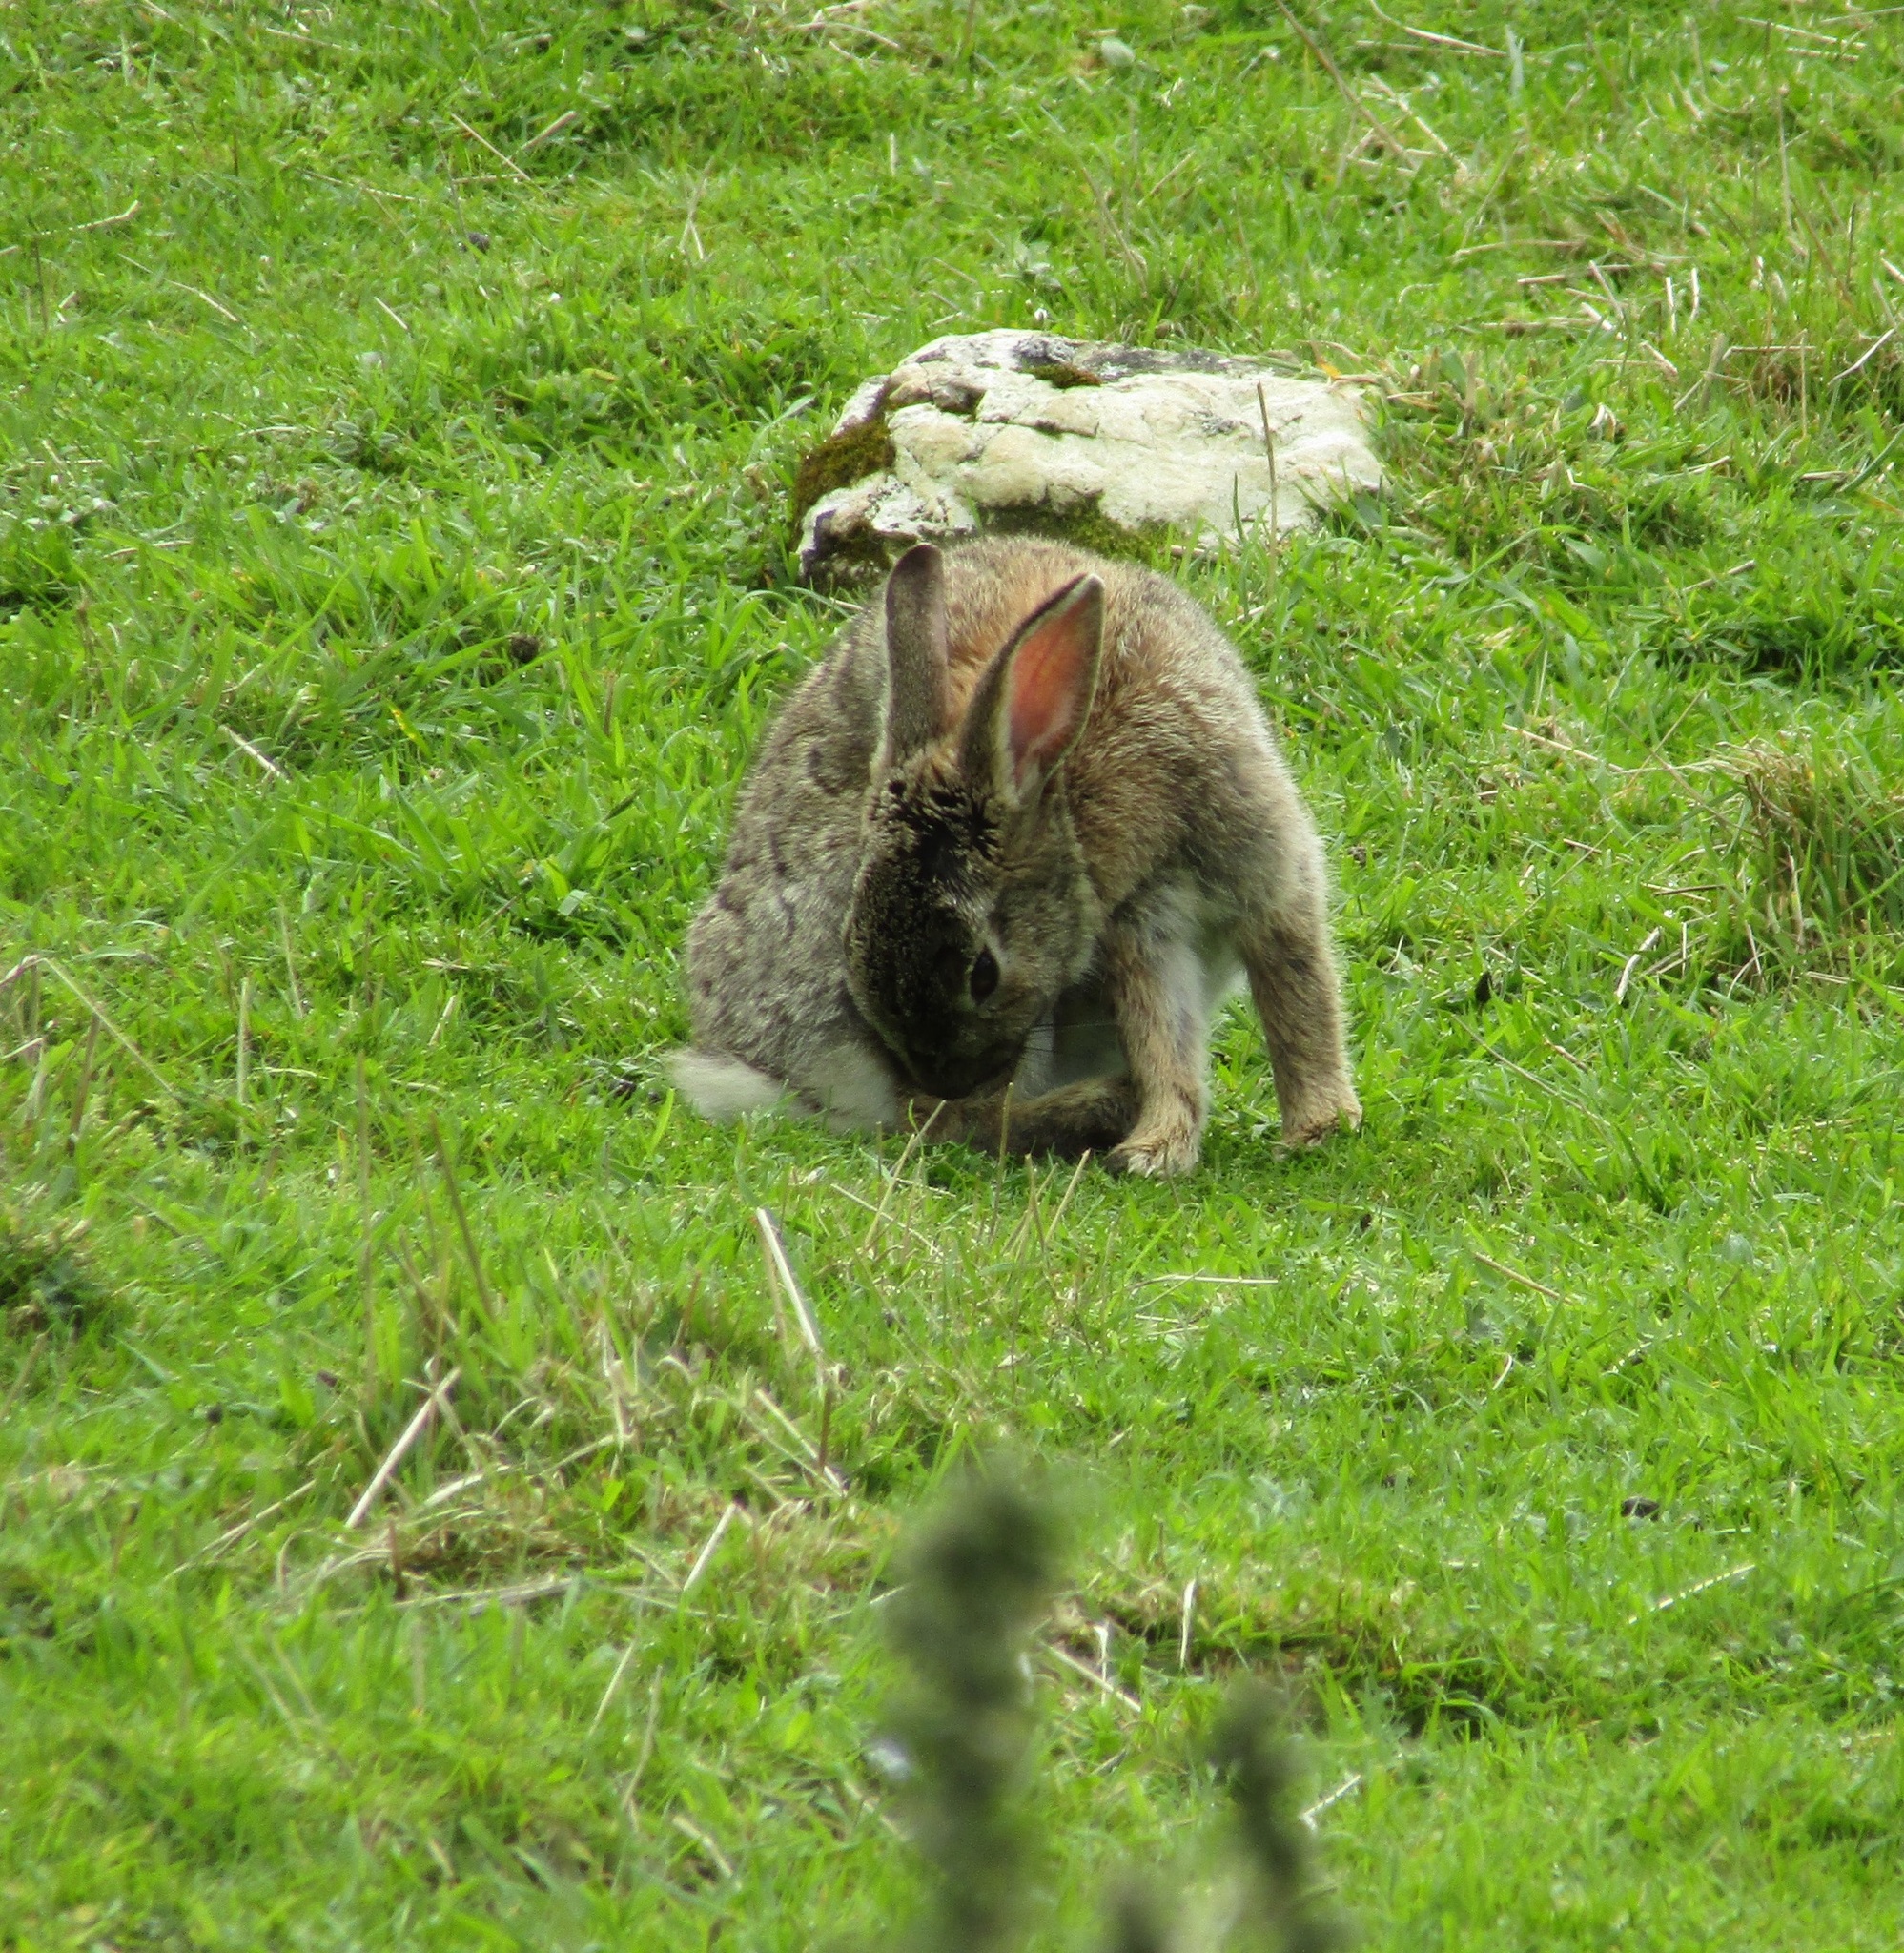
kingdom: Animalia
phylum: Chordata
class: Mammalia
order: Lagomorpha
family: Leporidae
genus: Oryctolagus
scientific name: Oryctolagus cuniculus
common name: European rabbit
